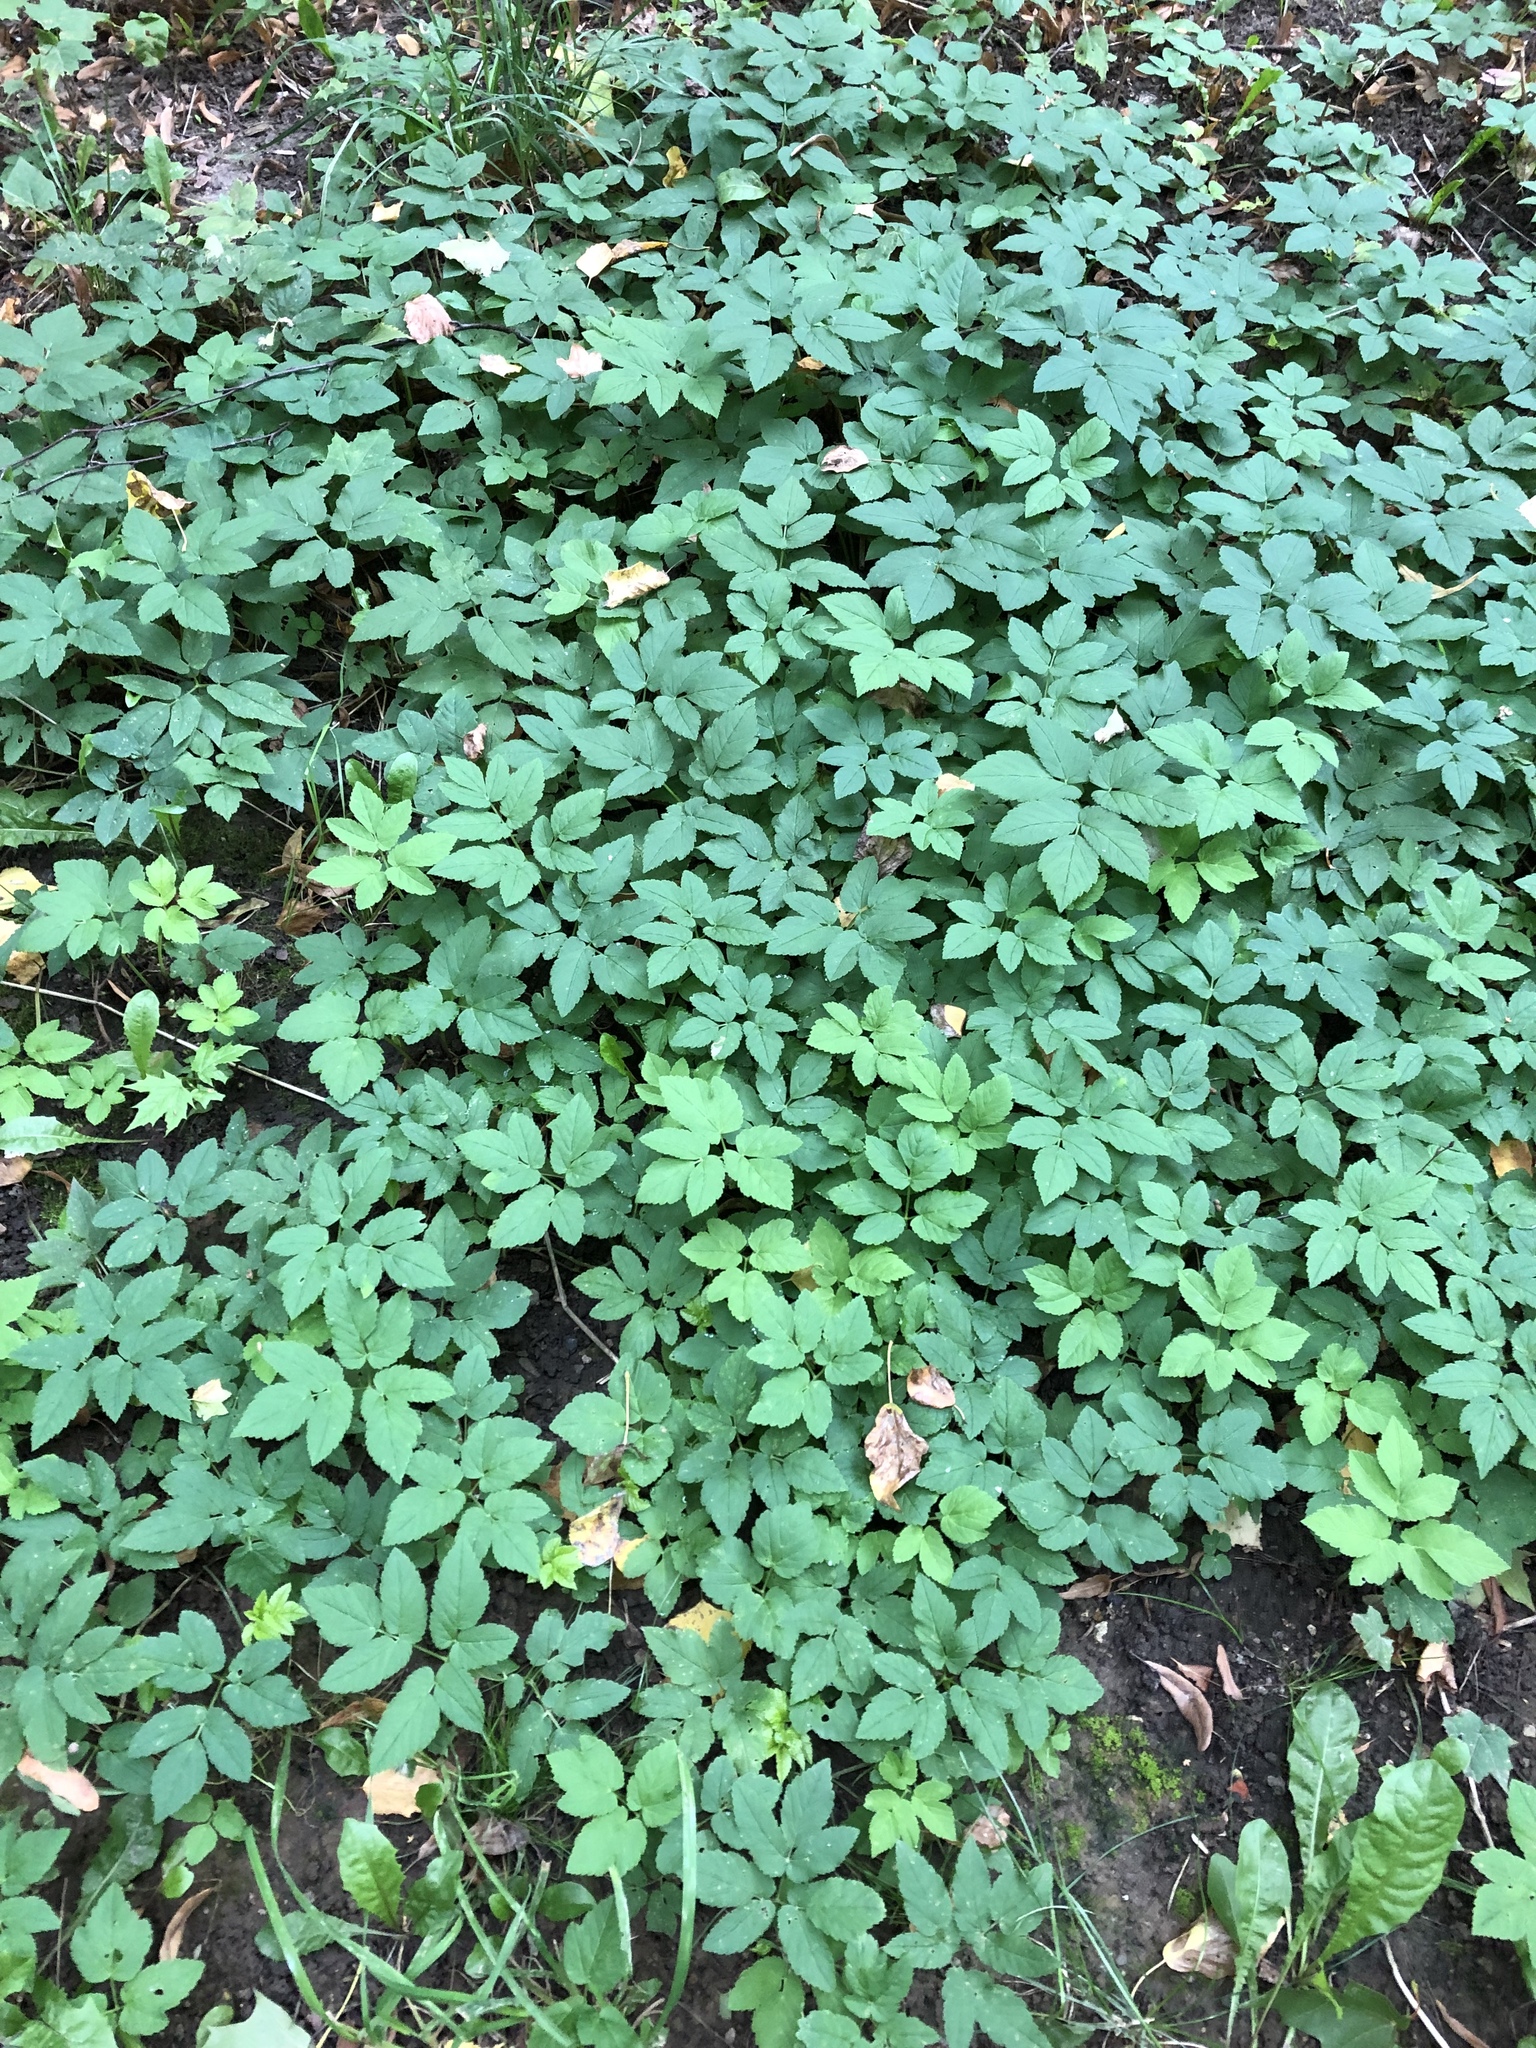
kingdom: Plantae
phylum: Tracheophyta
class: Magnoliopsida
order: Apiales
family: Apiaceae
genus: Aegopodium
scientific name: Aegopodium podagraria
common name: Ground-elder
